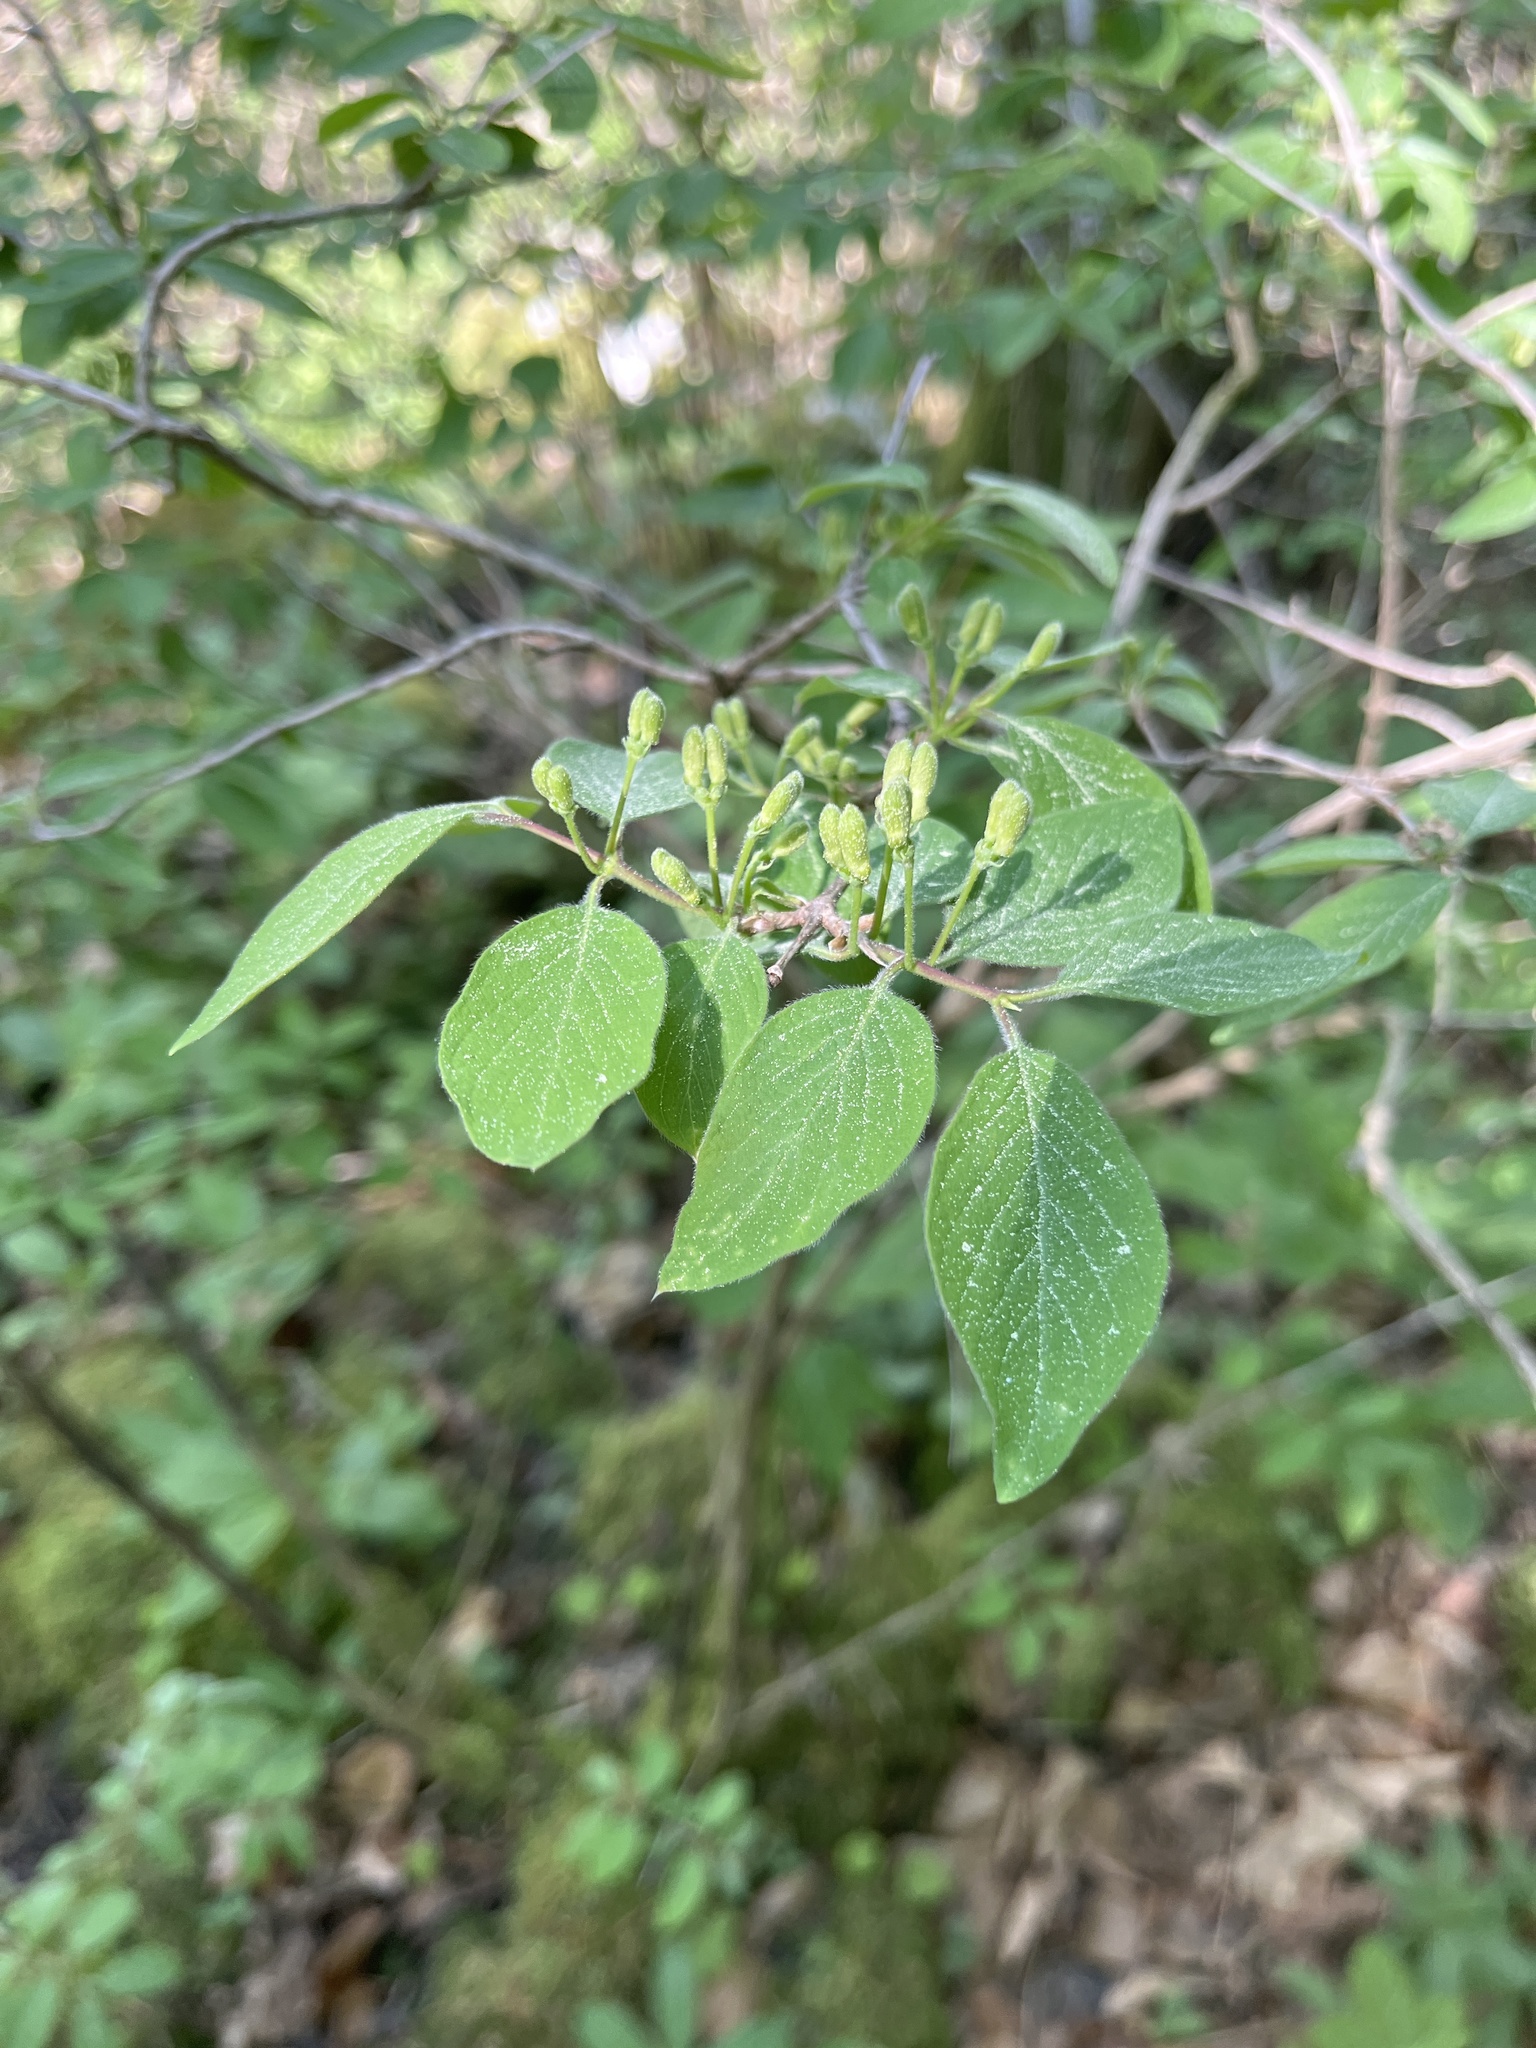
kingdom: Plantae
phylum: Tracheophyta
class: Magnoliopsida
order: Dipsacales
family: Caprifoliaceae
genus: Lonicera
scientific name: Lonicera xylosteum
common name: Fly honeysuckle
